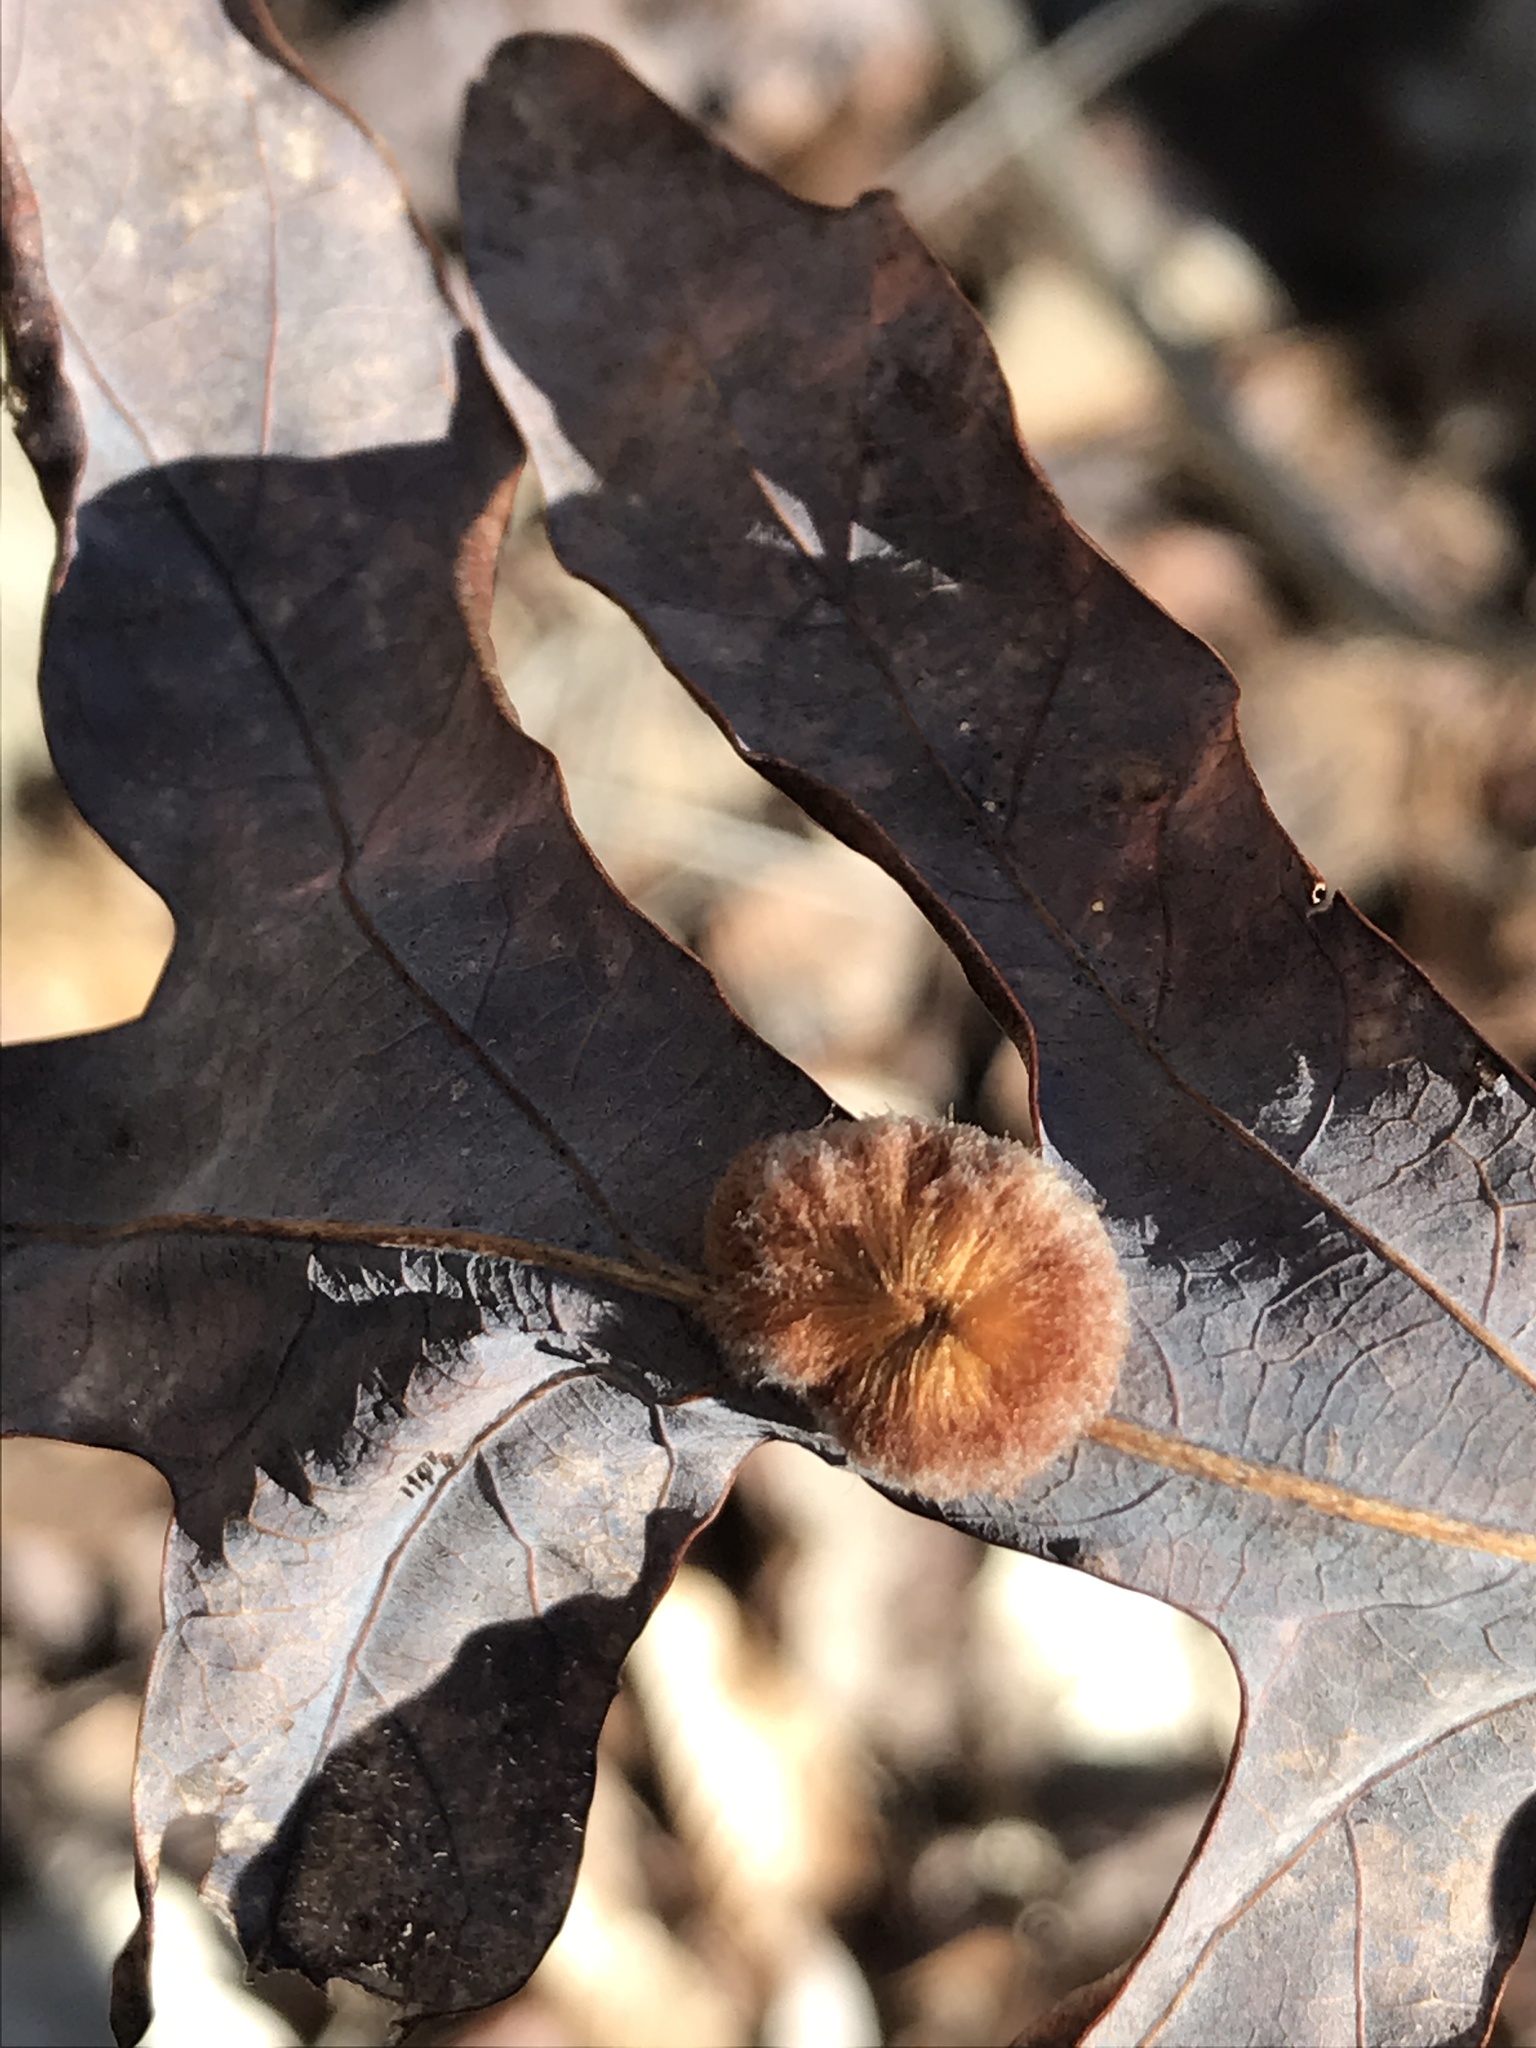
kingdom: Animalia
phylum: Arthropoda
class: Insecta
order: Hymenoptera
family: Cynipidae
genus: Andricus
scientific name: Andricus quercusflocci
